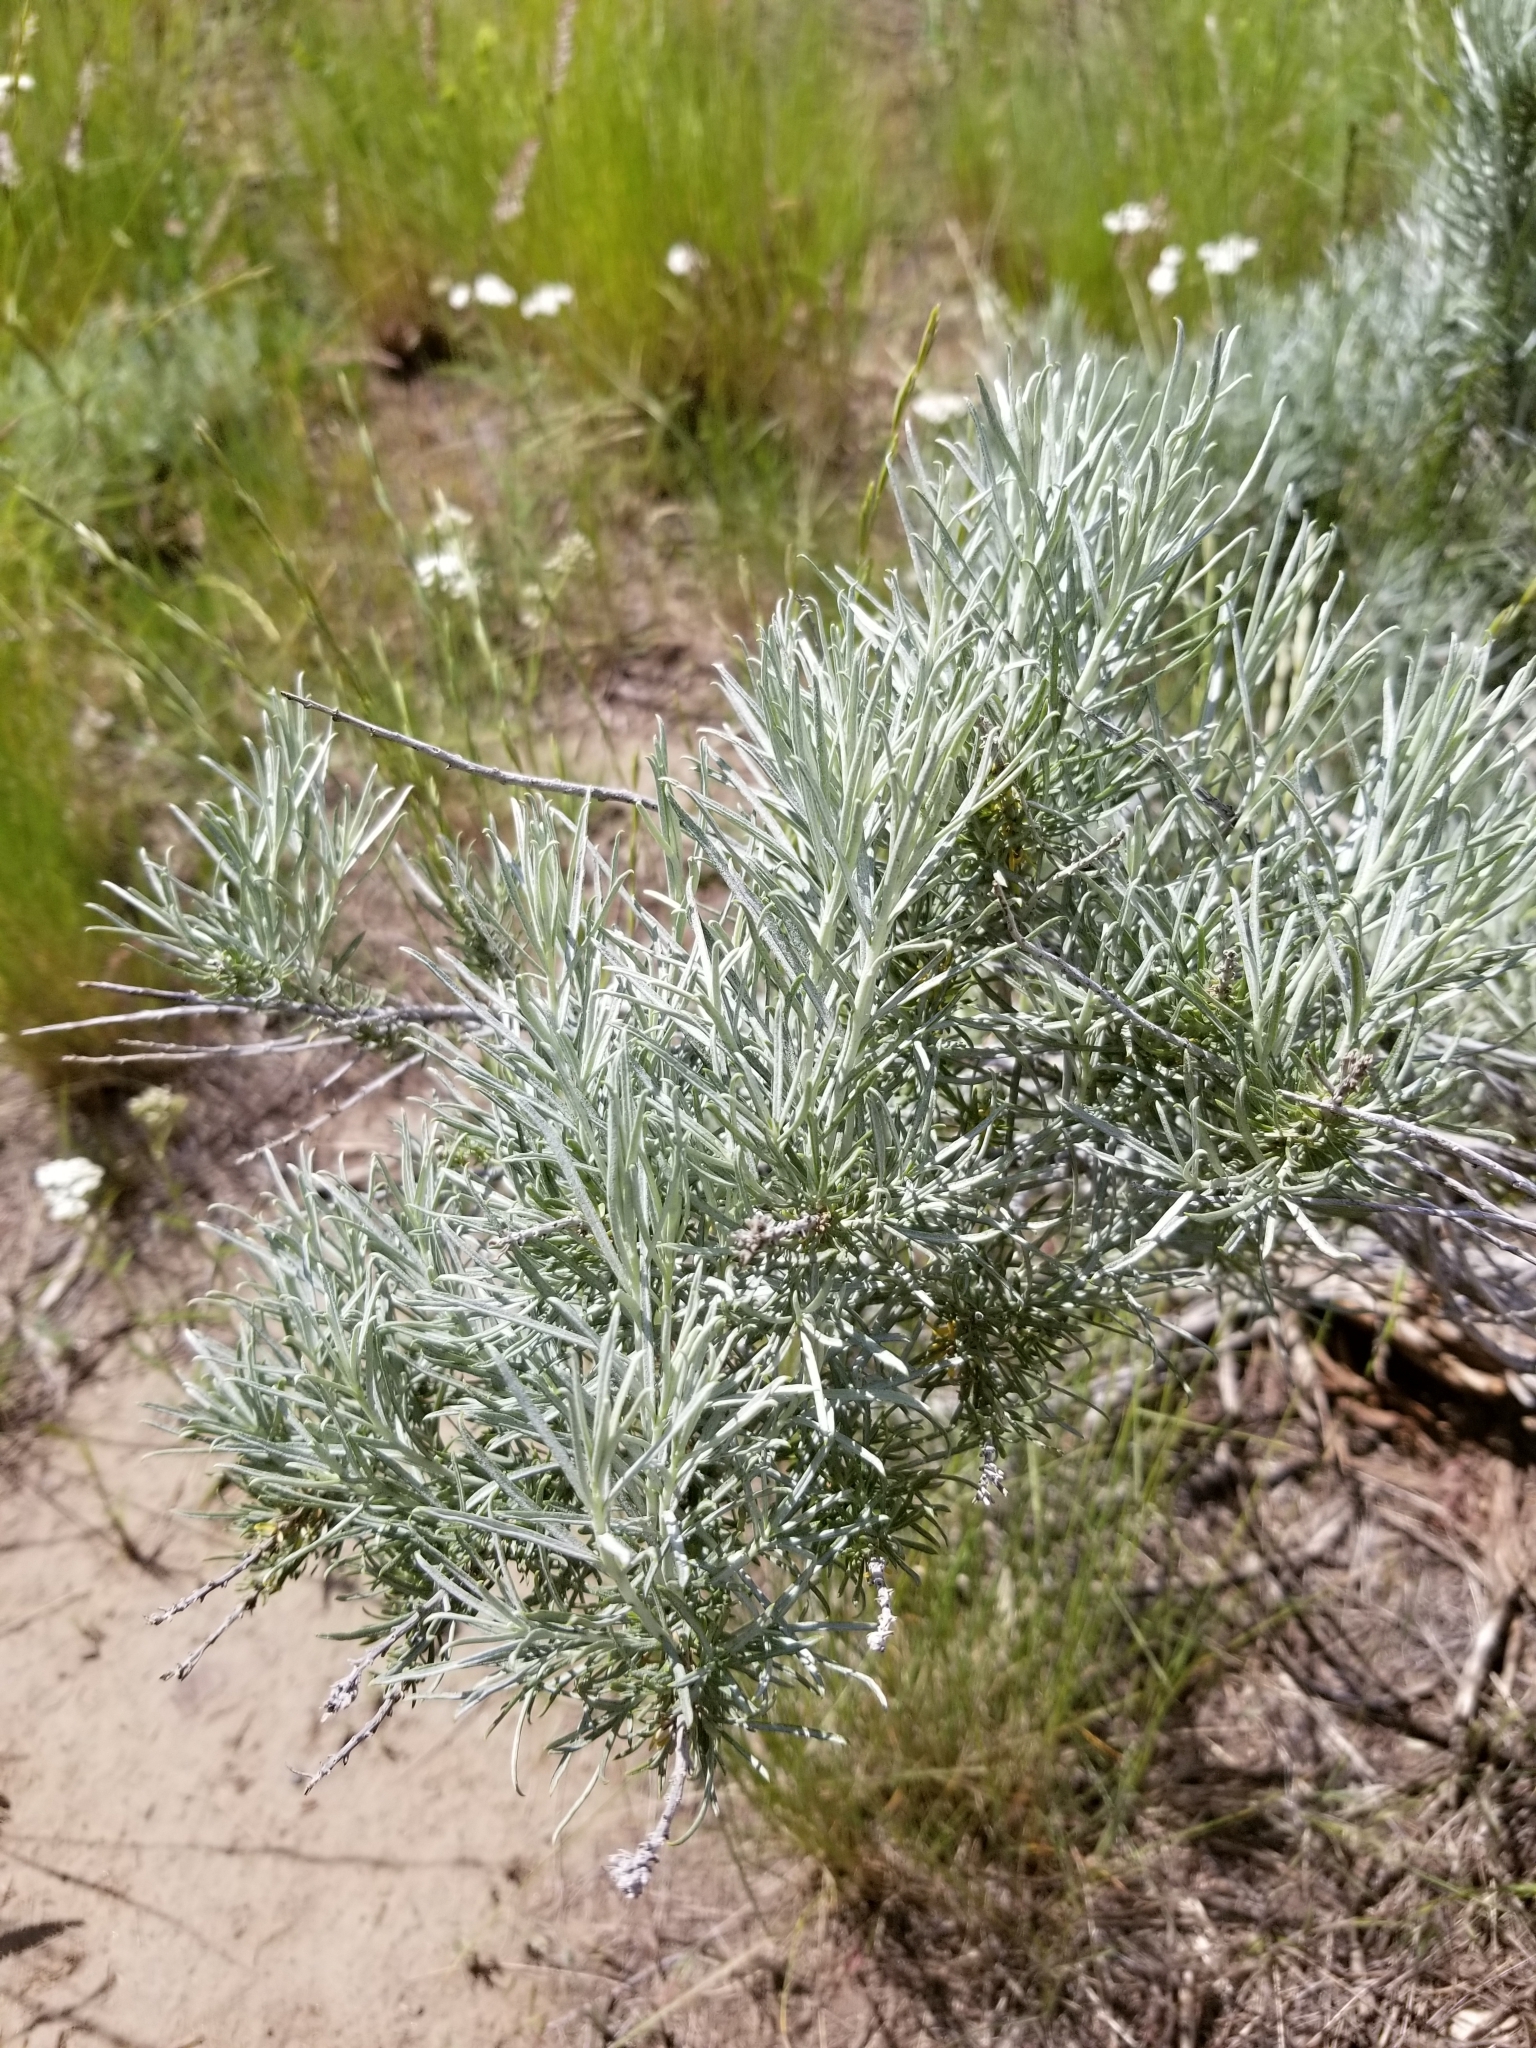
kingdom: Plantae
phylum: Tracheophyta
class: Magnoliopsida
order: Asterales
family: Asteraceae
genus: Ericameria
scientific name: Ericameria nauseosa
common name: Rubber rabbitbrush
